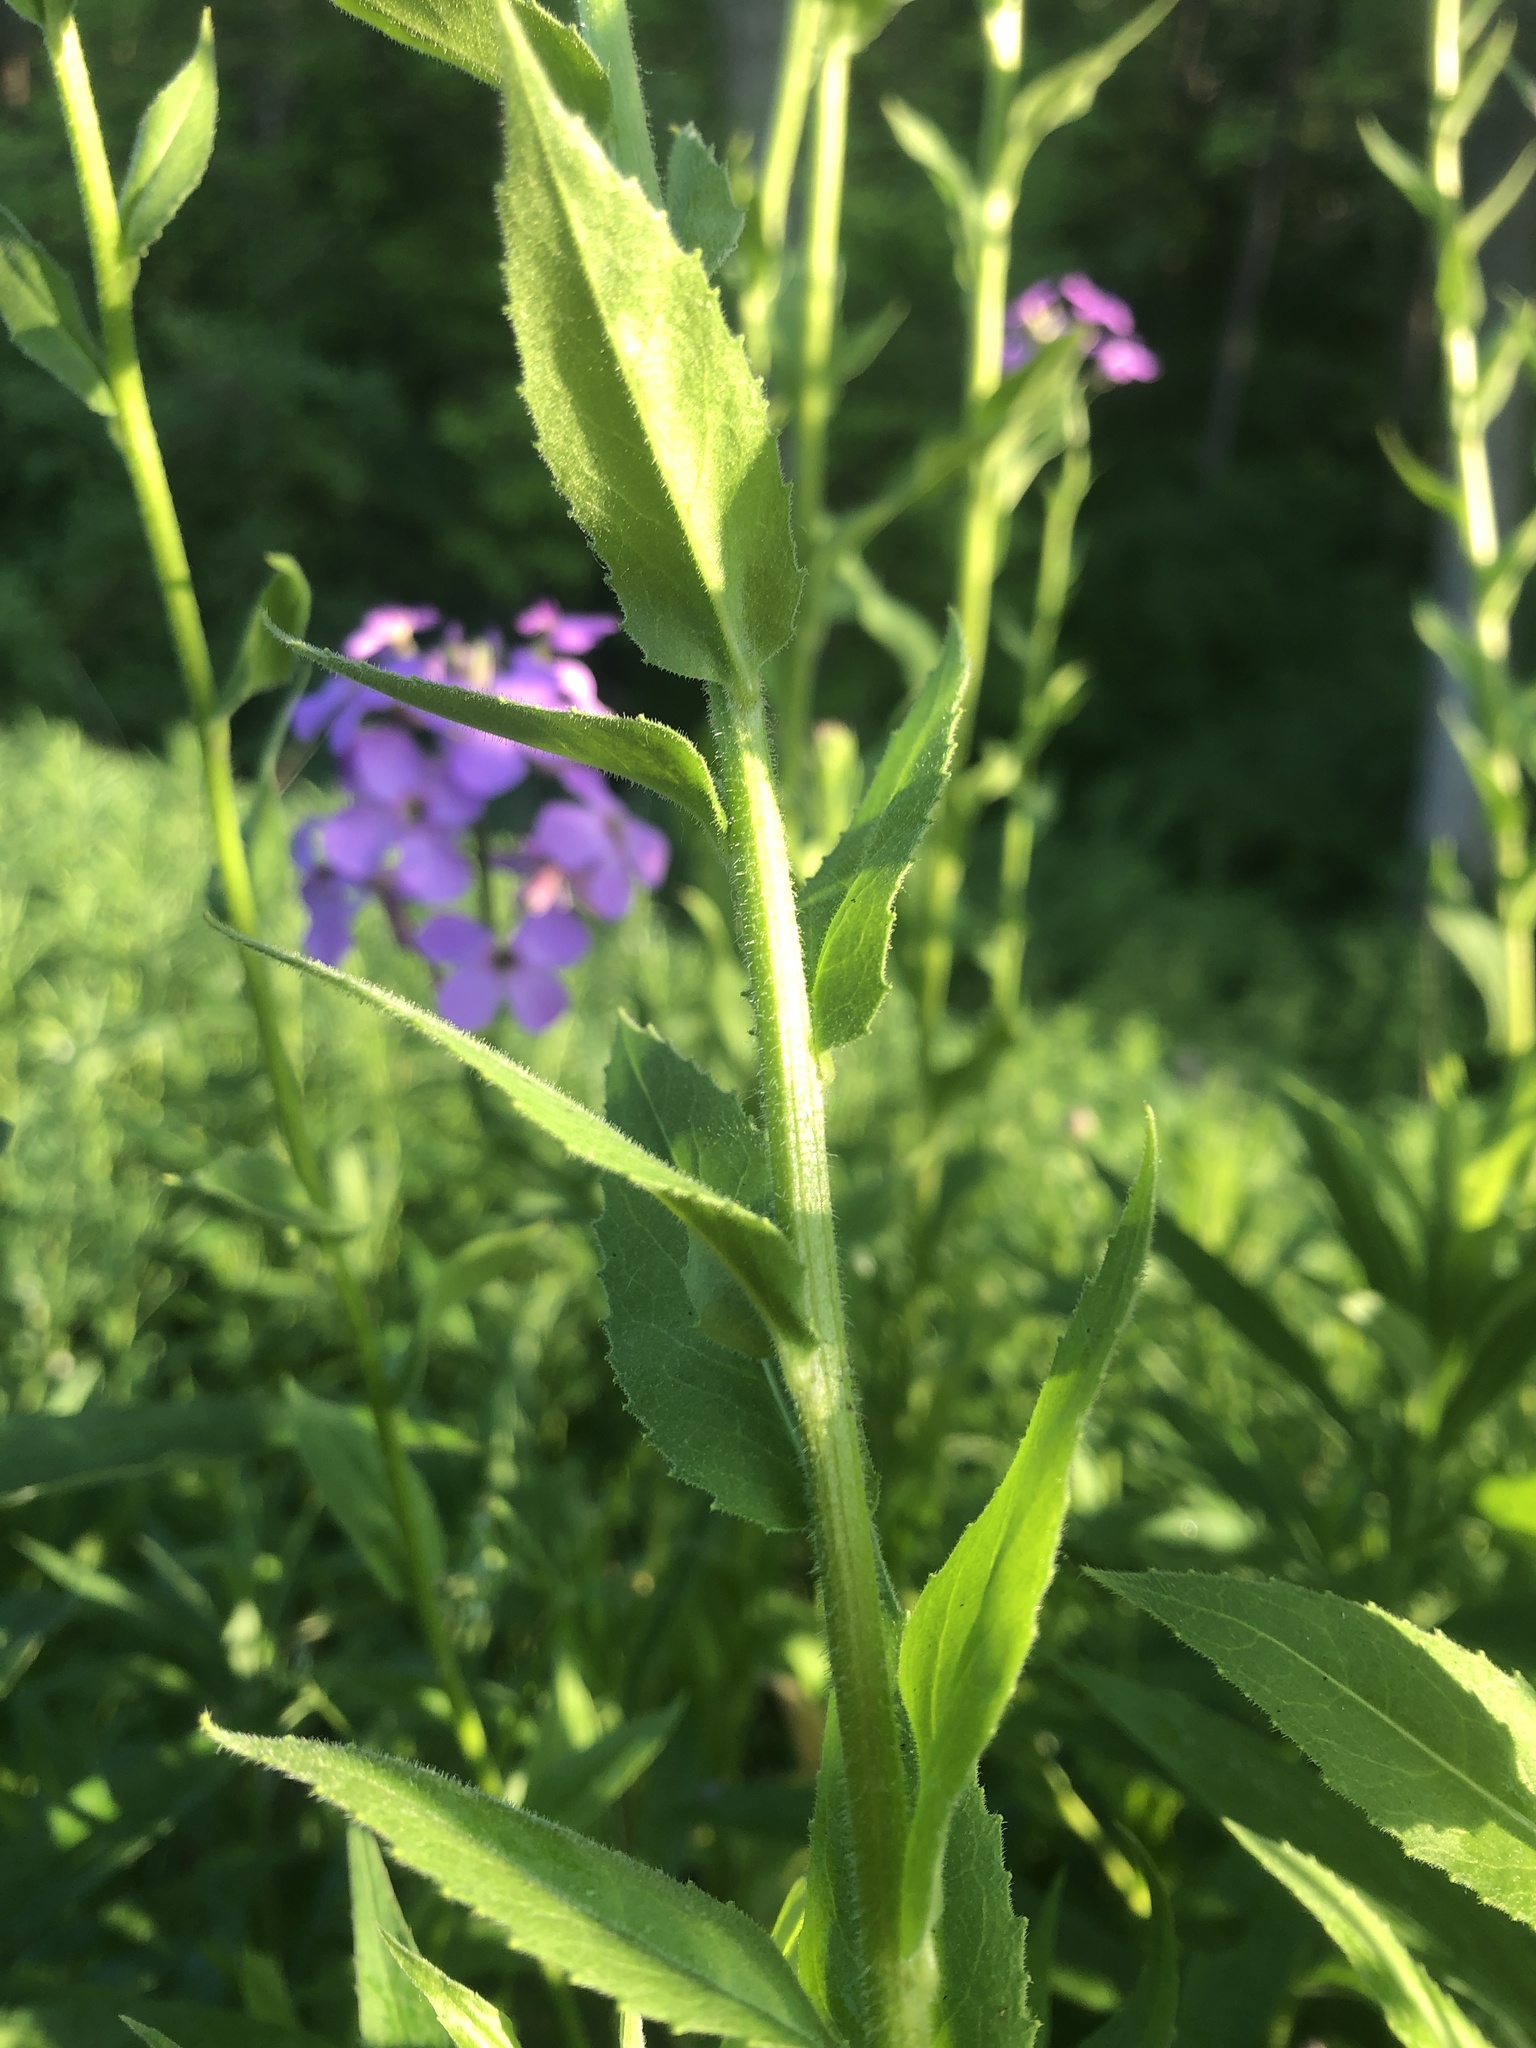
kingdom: Plantae
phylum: Tracheophyta
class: Magnoliopsida
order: Brassicales
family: Brassicaceae
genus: Hesperis
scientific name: Hesperis matronalis
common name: Dame's-violet
